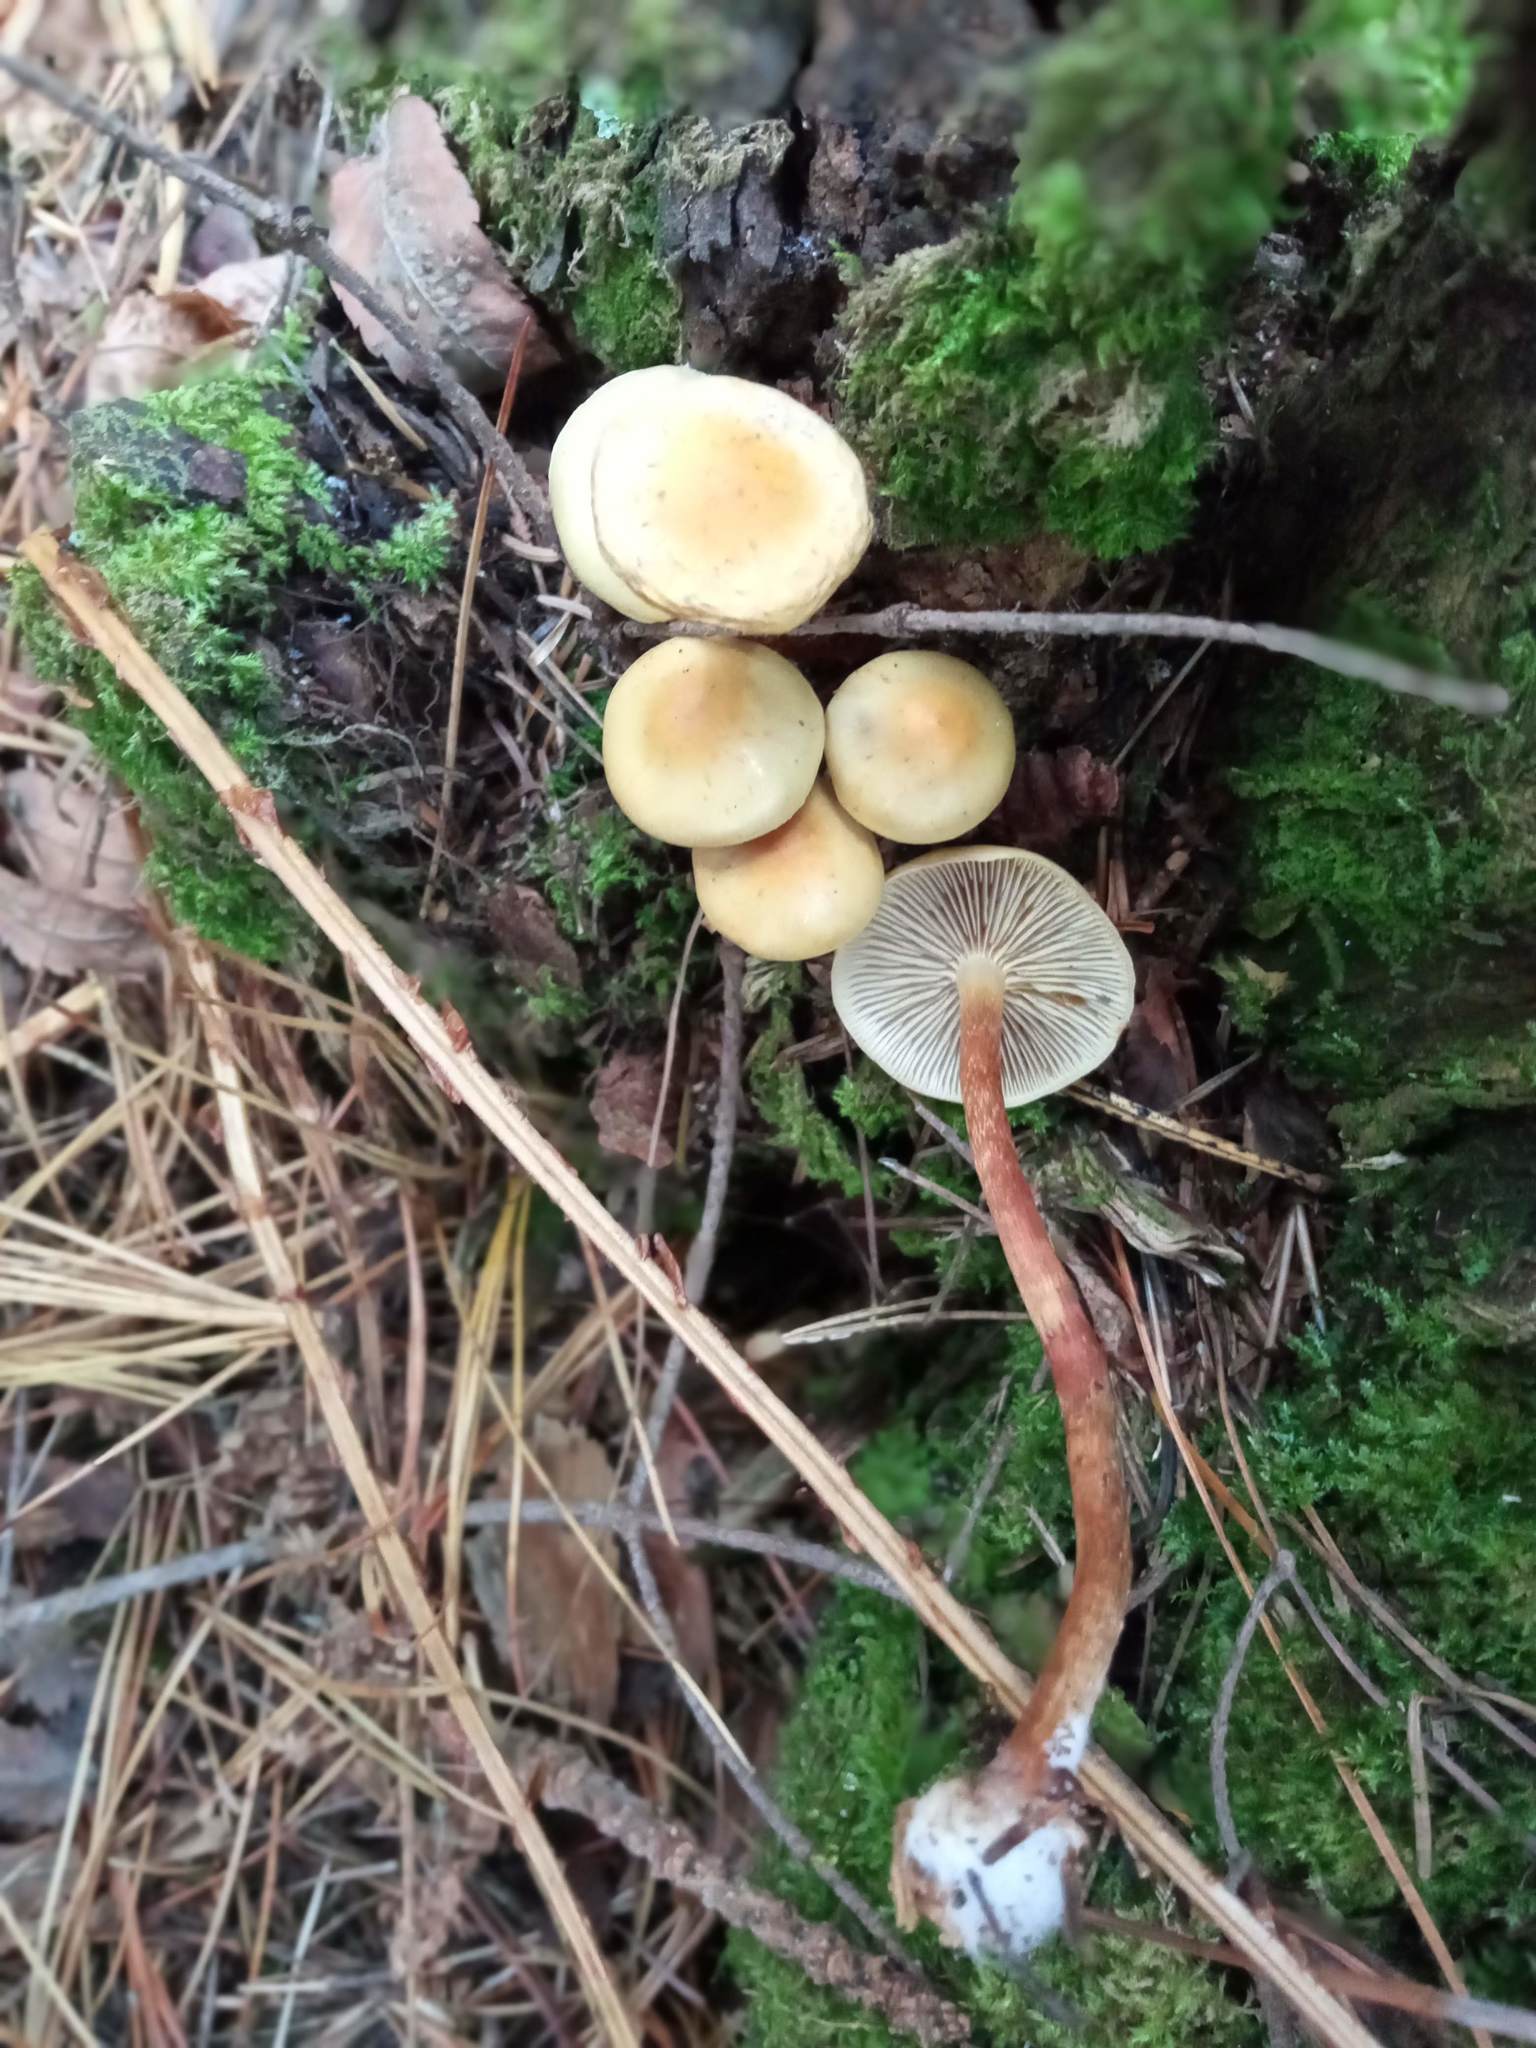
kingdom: Fungi
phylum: Basidiomycota
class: Agaricomycetes
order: Agaricales
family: Strophariaceae
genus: Hypholoma
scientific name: Hypholoma capnoides
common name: Conifer tuft
